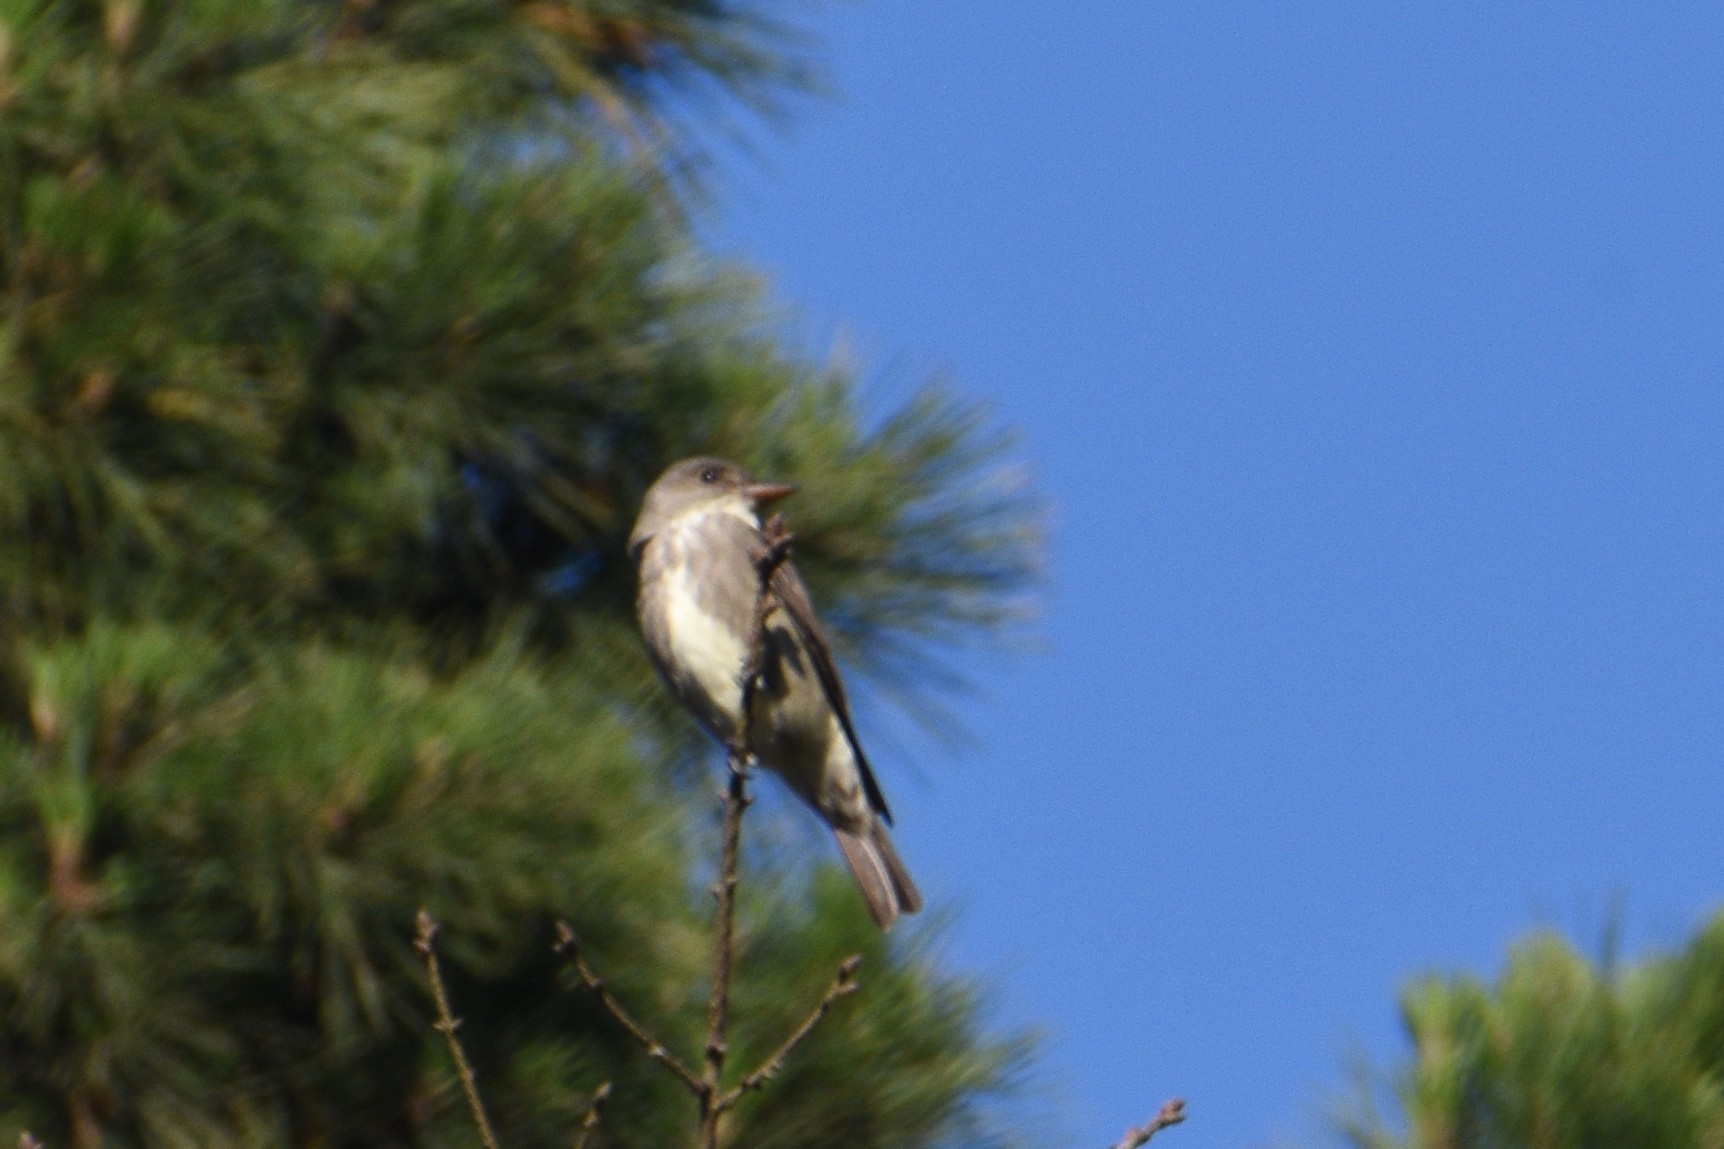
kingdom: Animalia
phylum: Chordata
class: Aves
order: Passeriformes
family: Tyrannidae
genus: Contopus
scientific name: Contopus cooperi
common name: Olive-sided flycatcher
